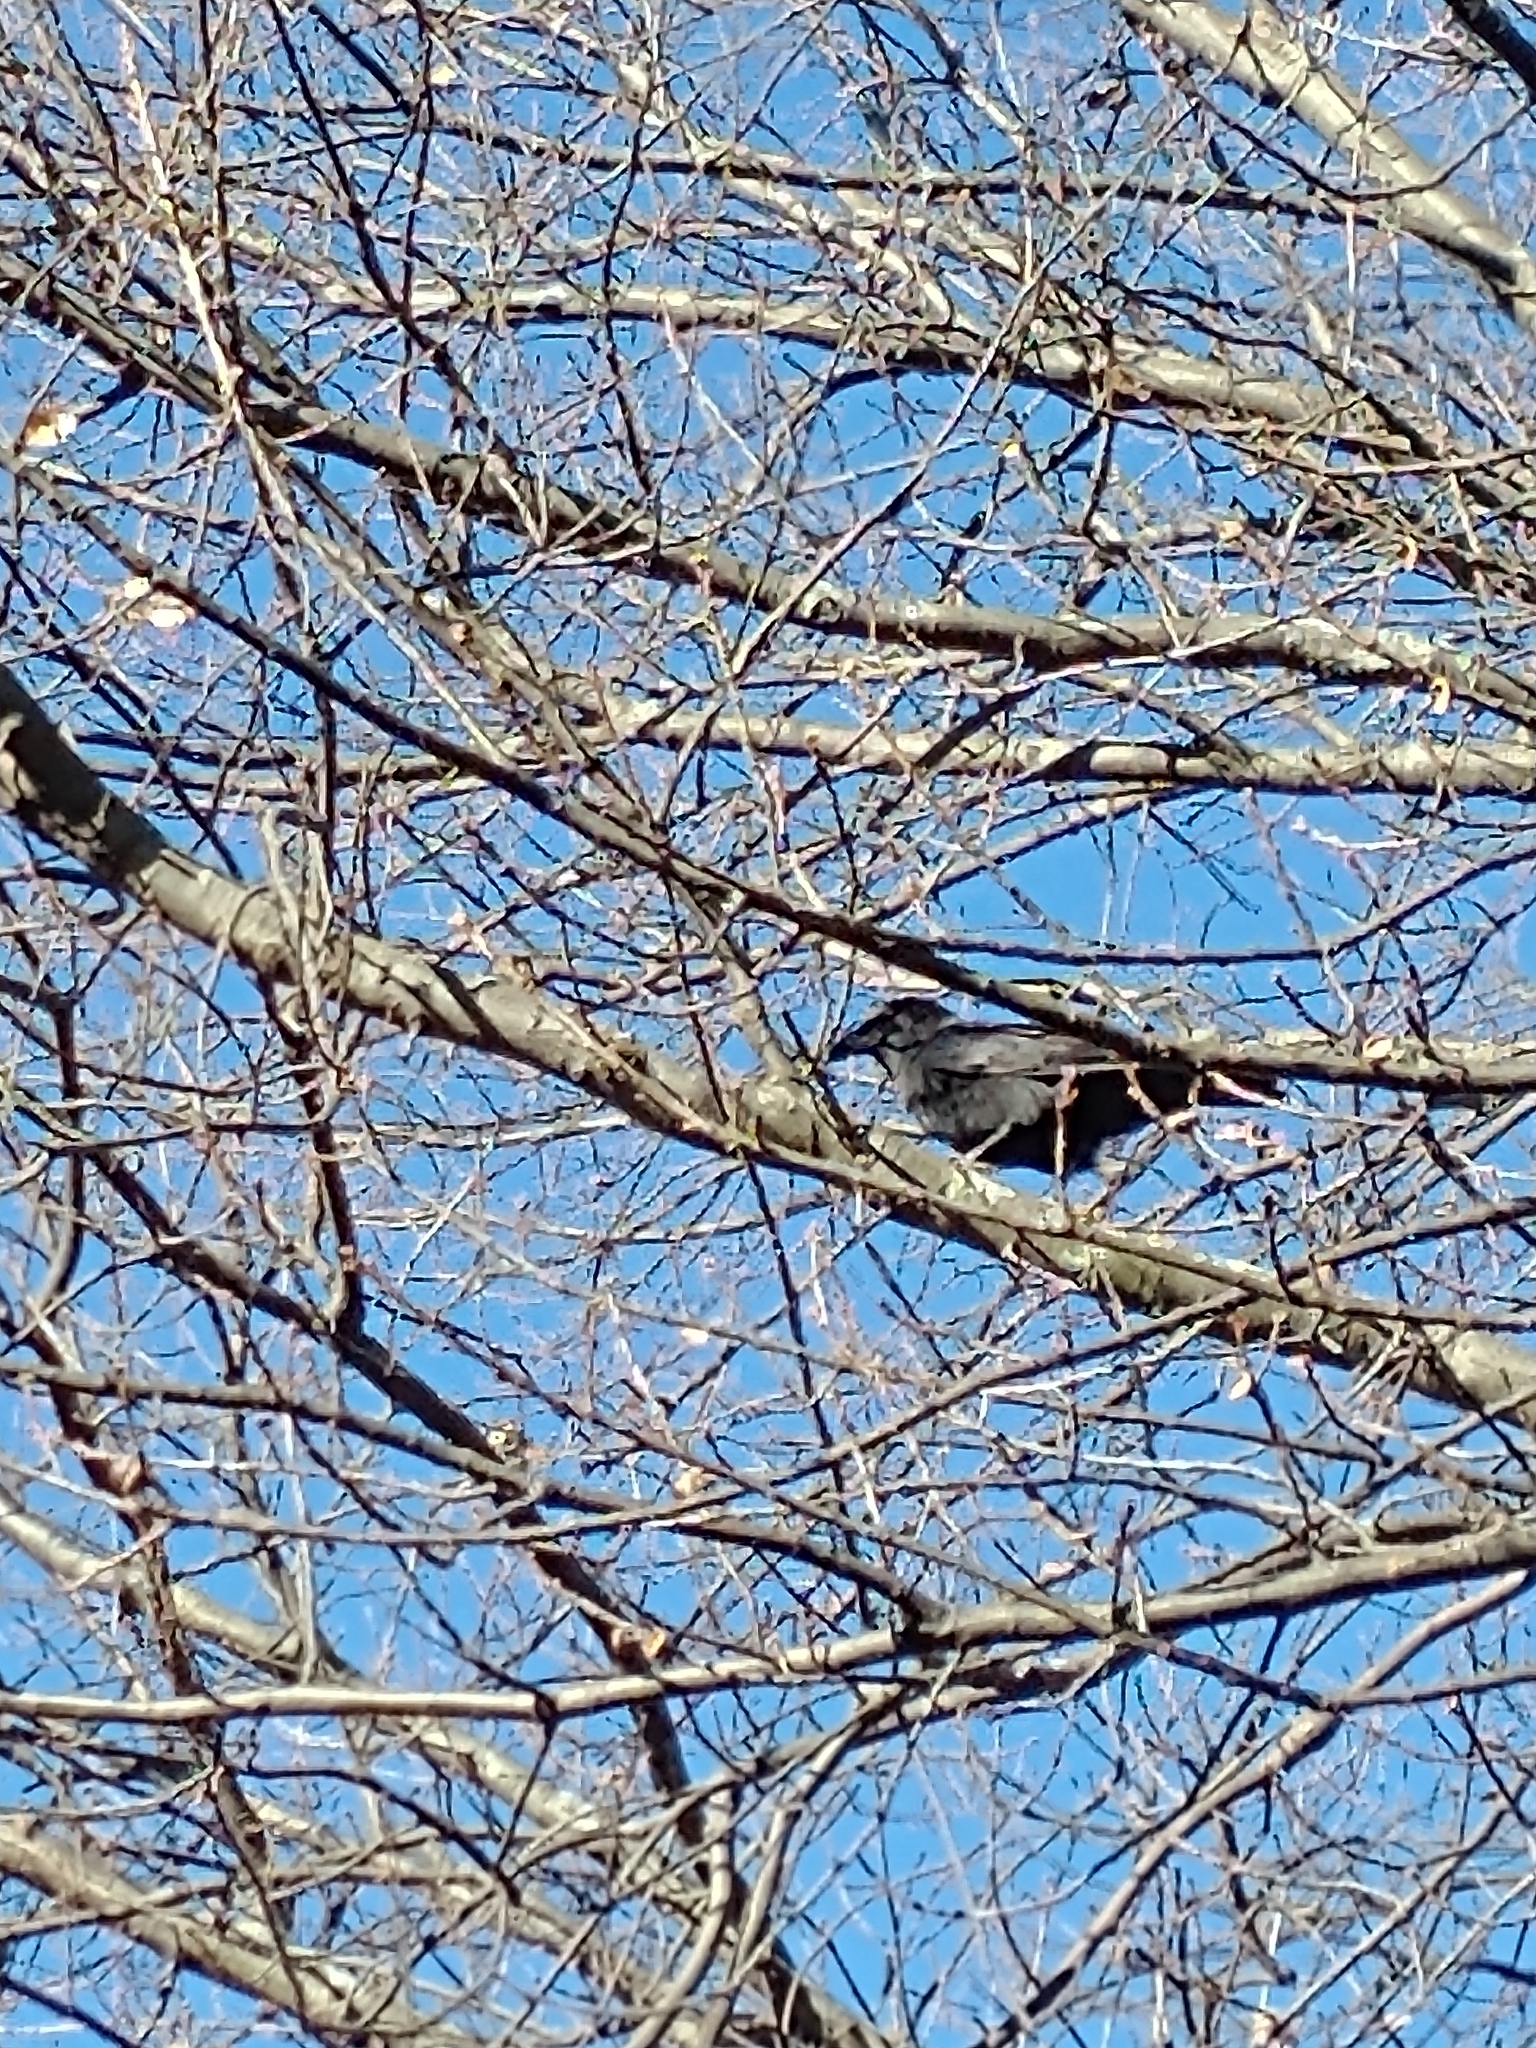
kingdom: Animalia
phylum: Chordata
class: Aves
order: Passeriformes
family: Corvidae
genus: Corvus
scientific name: Corvus brachyrhynchos
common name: American crow
